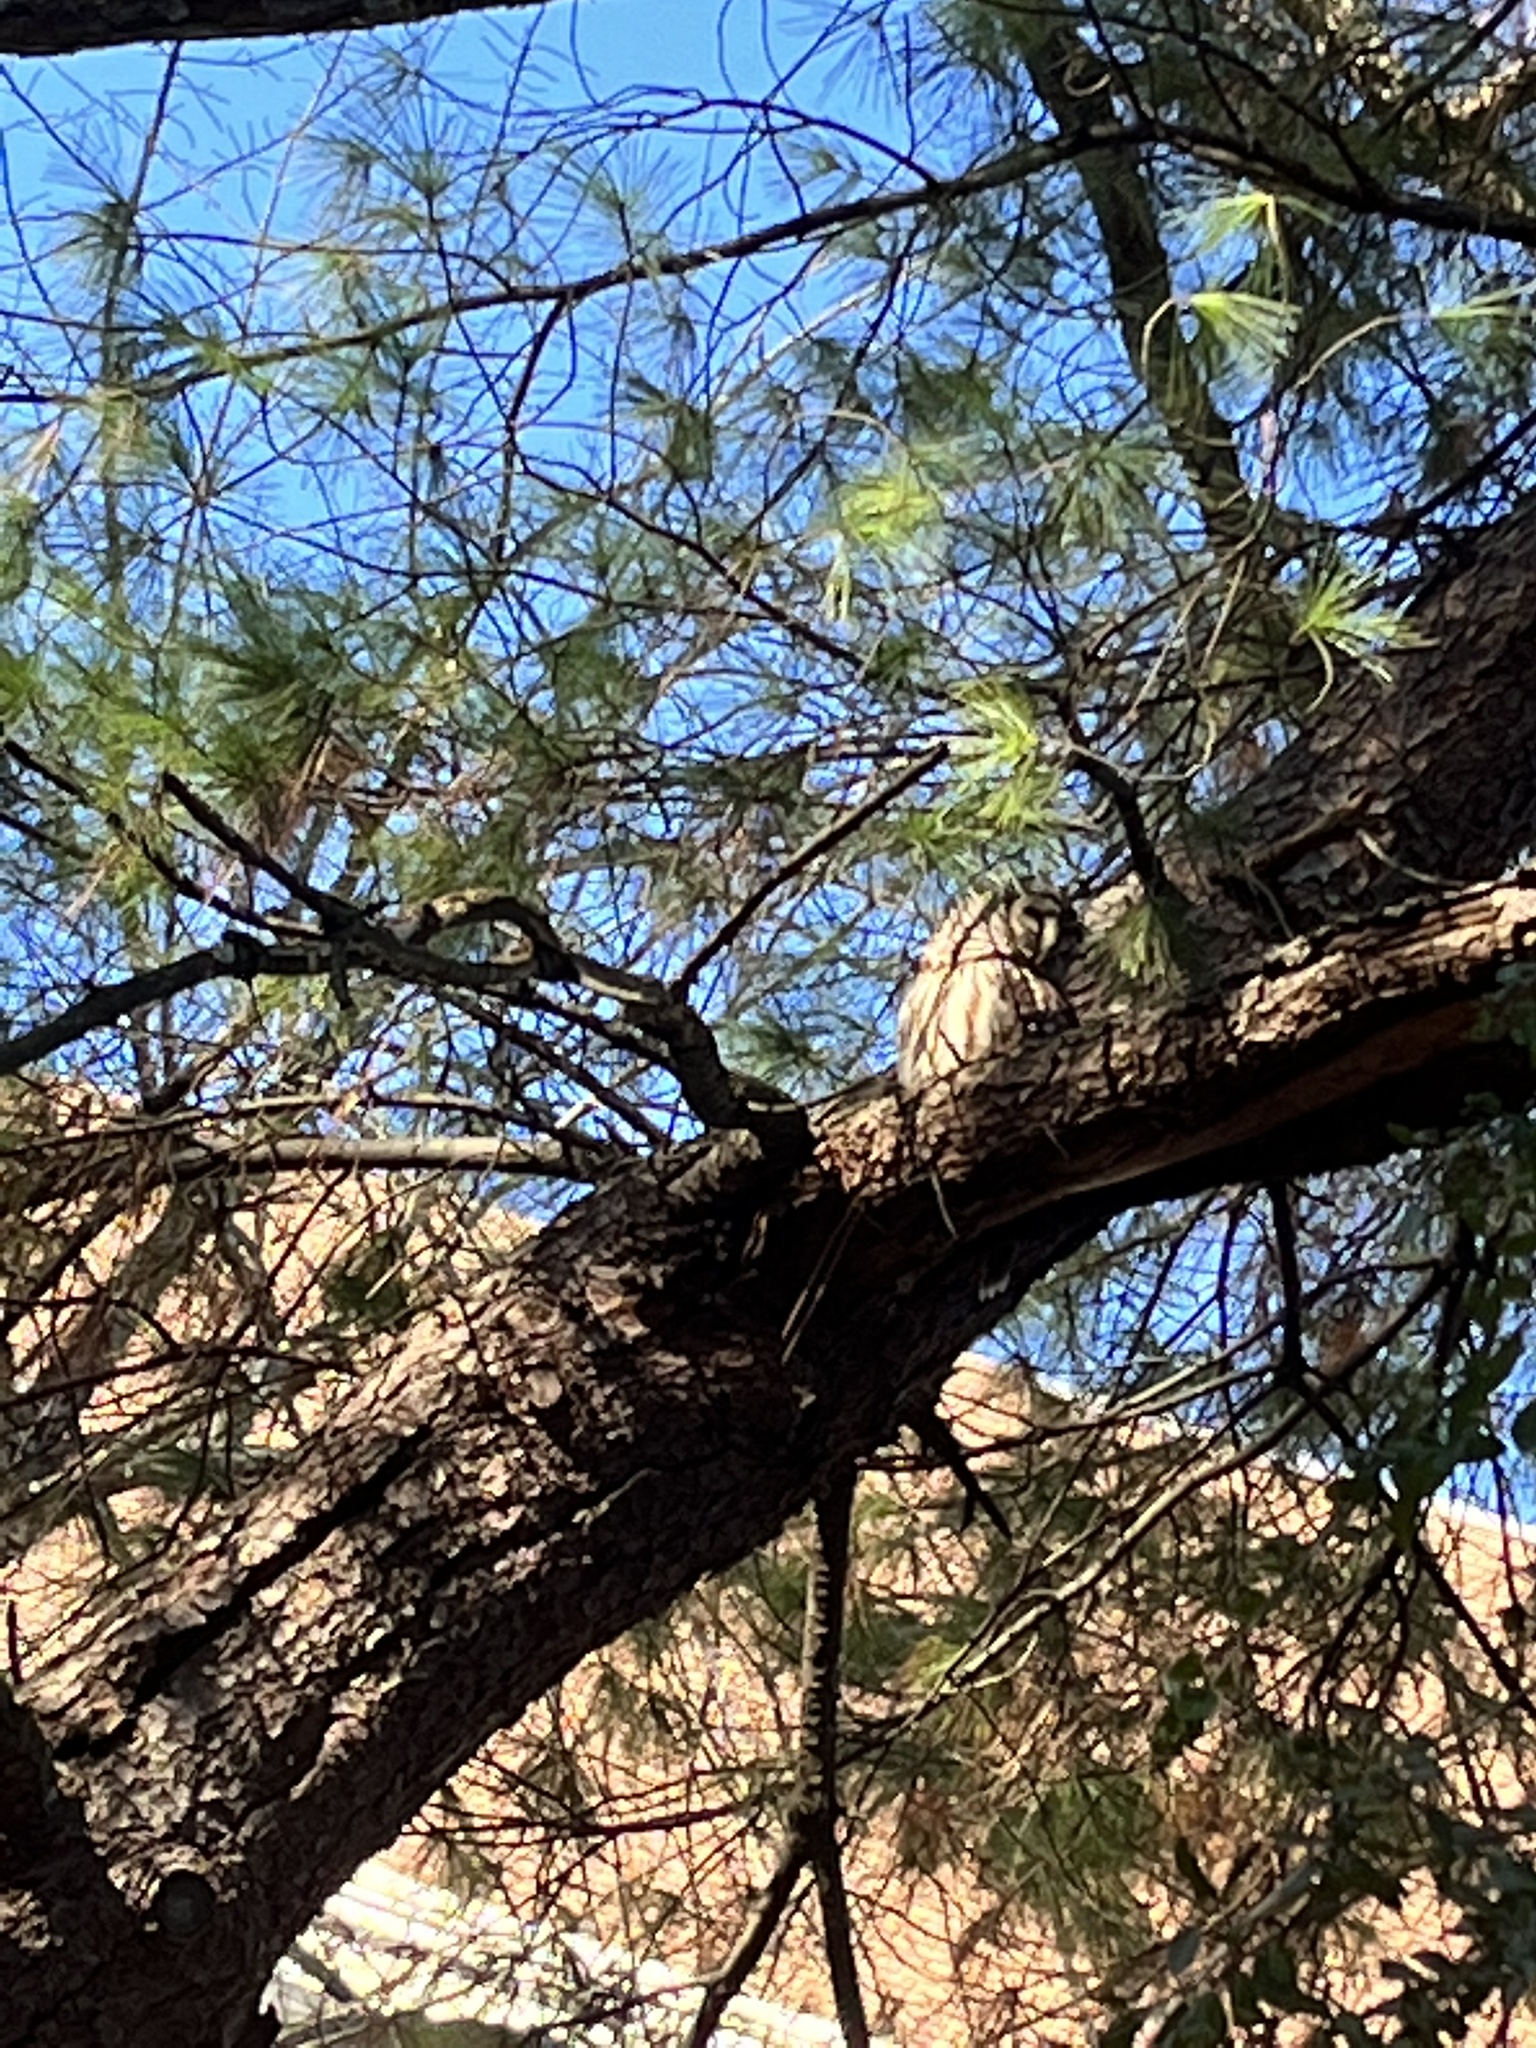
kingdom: Animalia
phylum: Chordata
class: Aves
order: Strigiformes
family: Strigidae
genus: Strix
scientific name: Strix varia
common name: Barred owl
